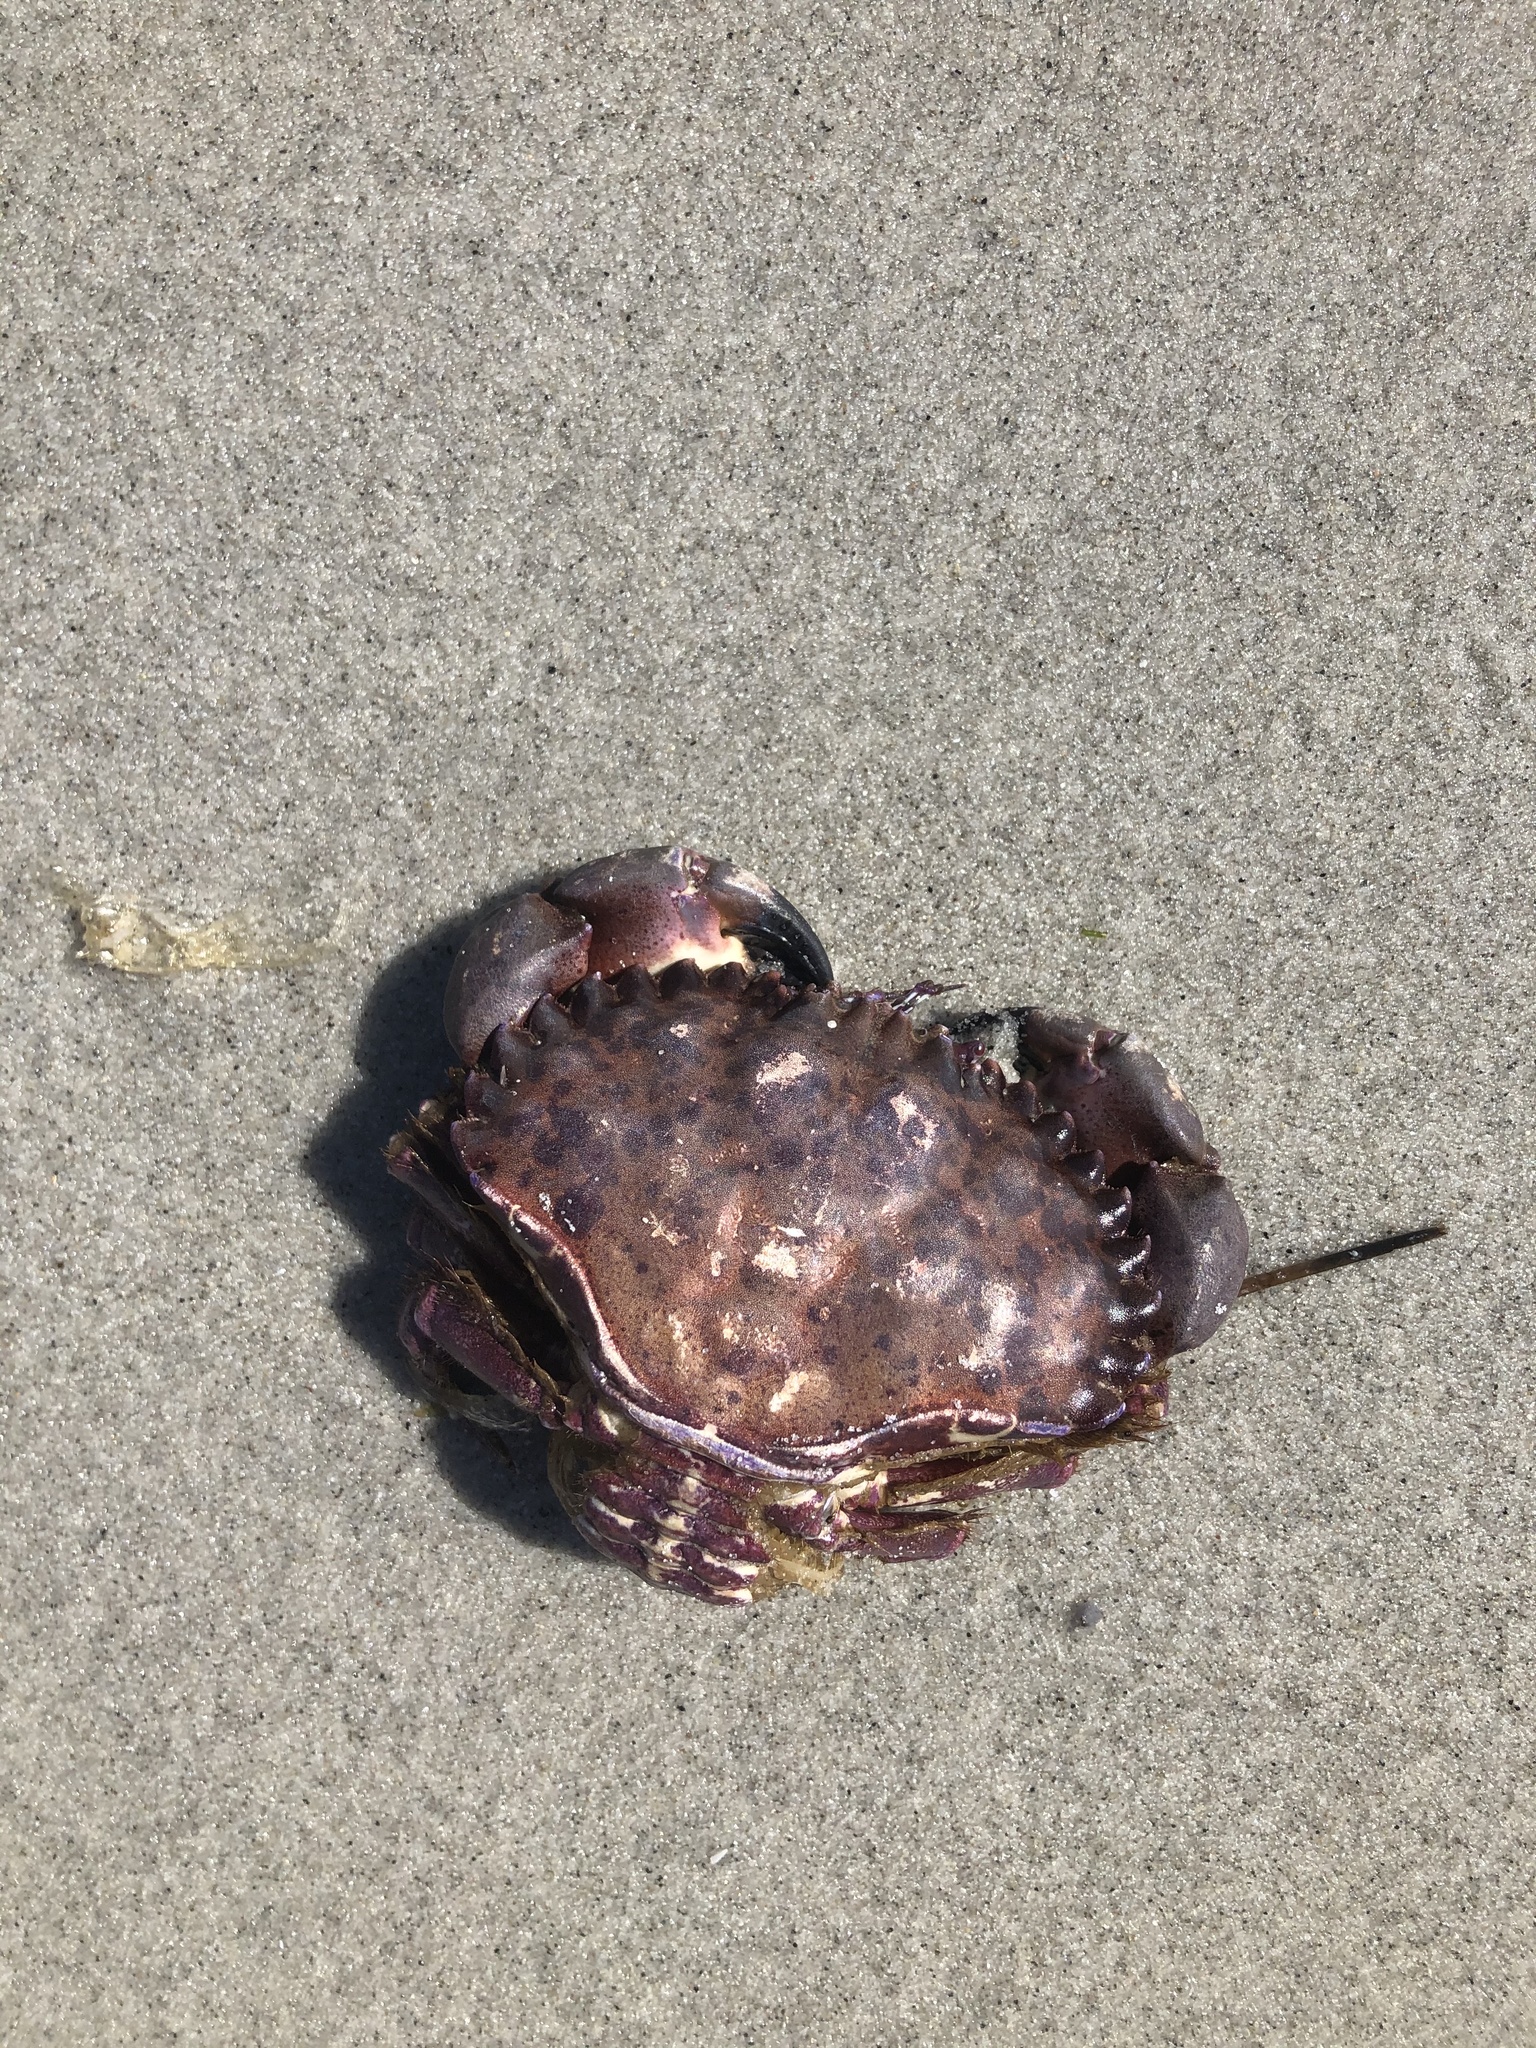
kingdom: Animalia
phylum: Arthropoda
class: Malacostraca
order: Decapoda
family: Cancridae
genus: Romaleon
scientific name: Romaleon antennarium
